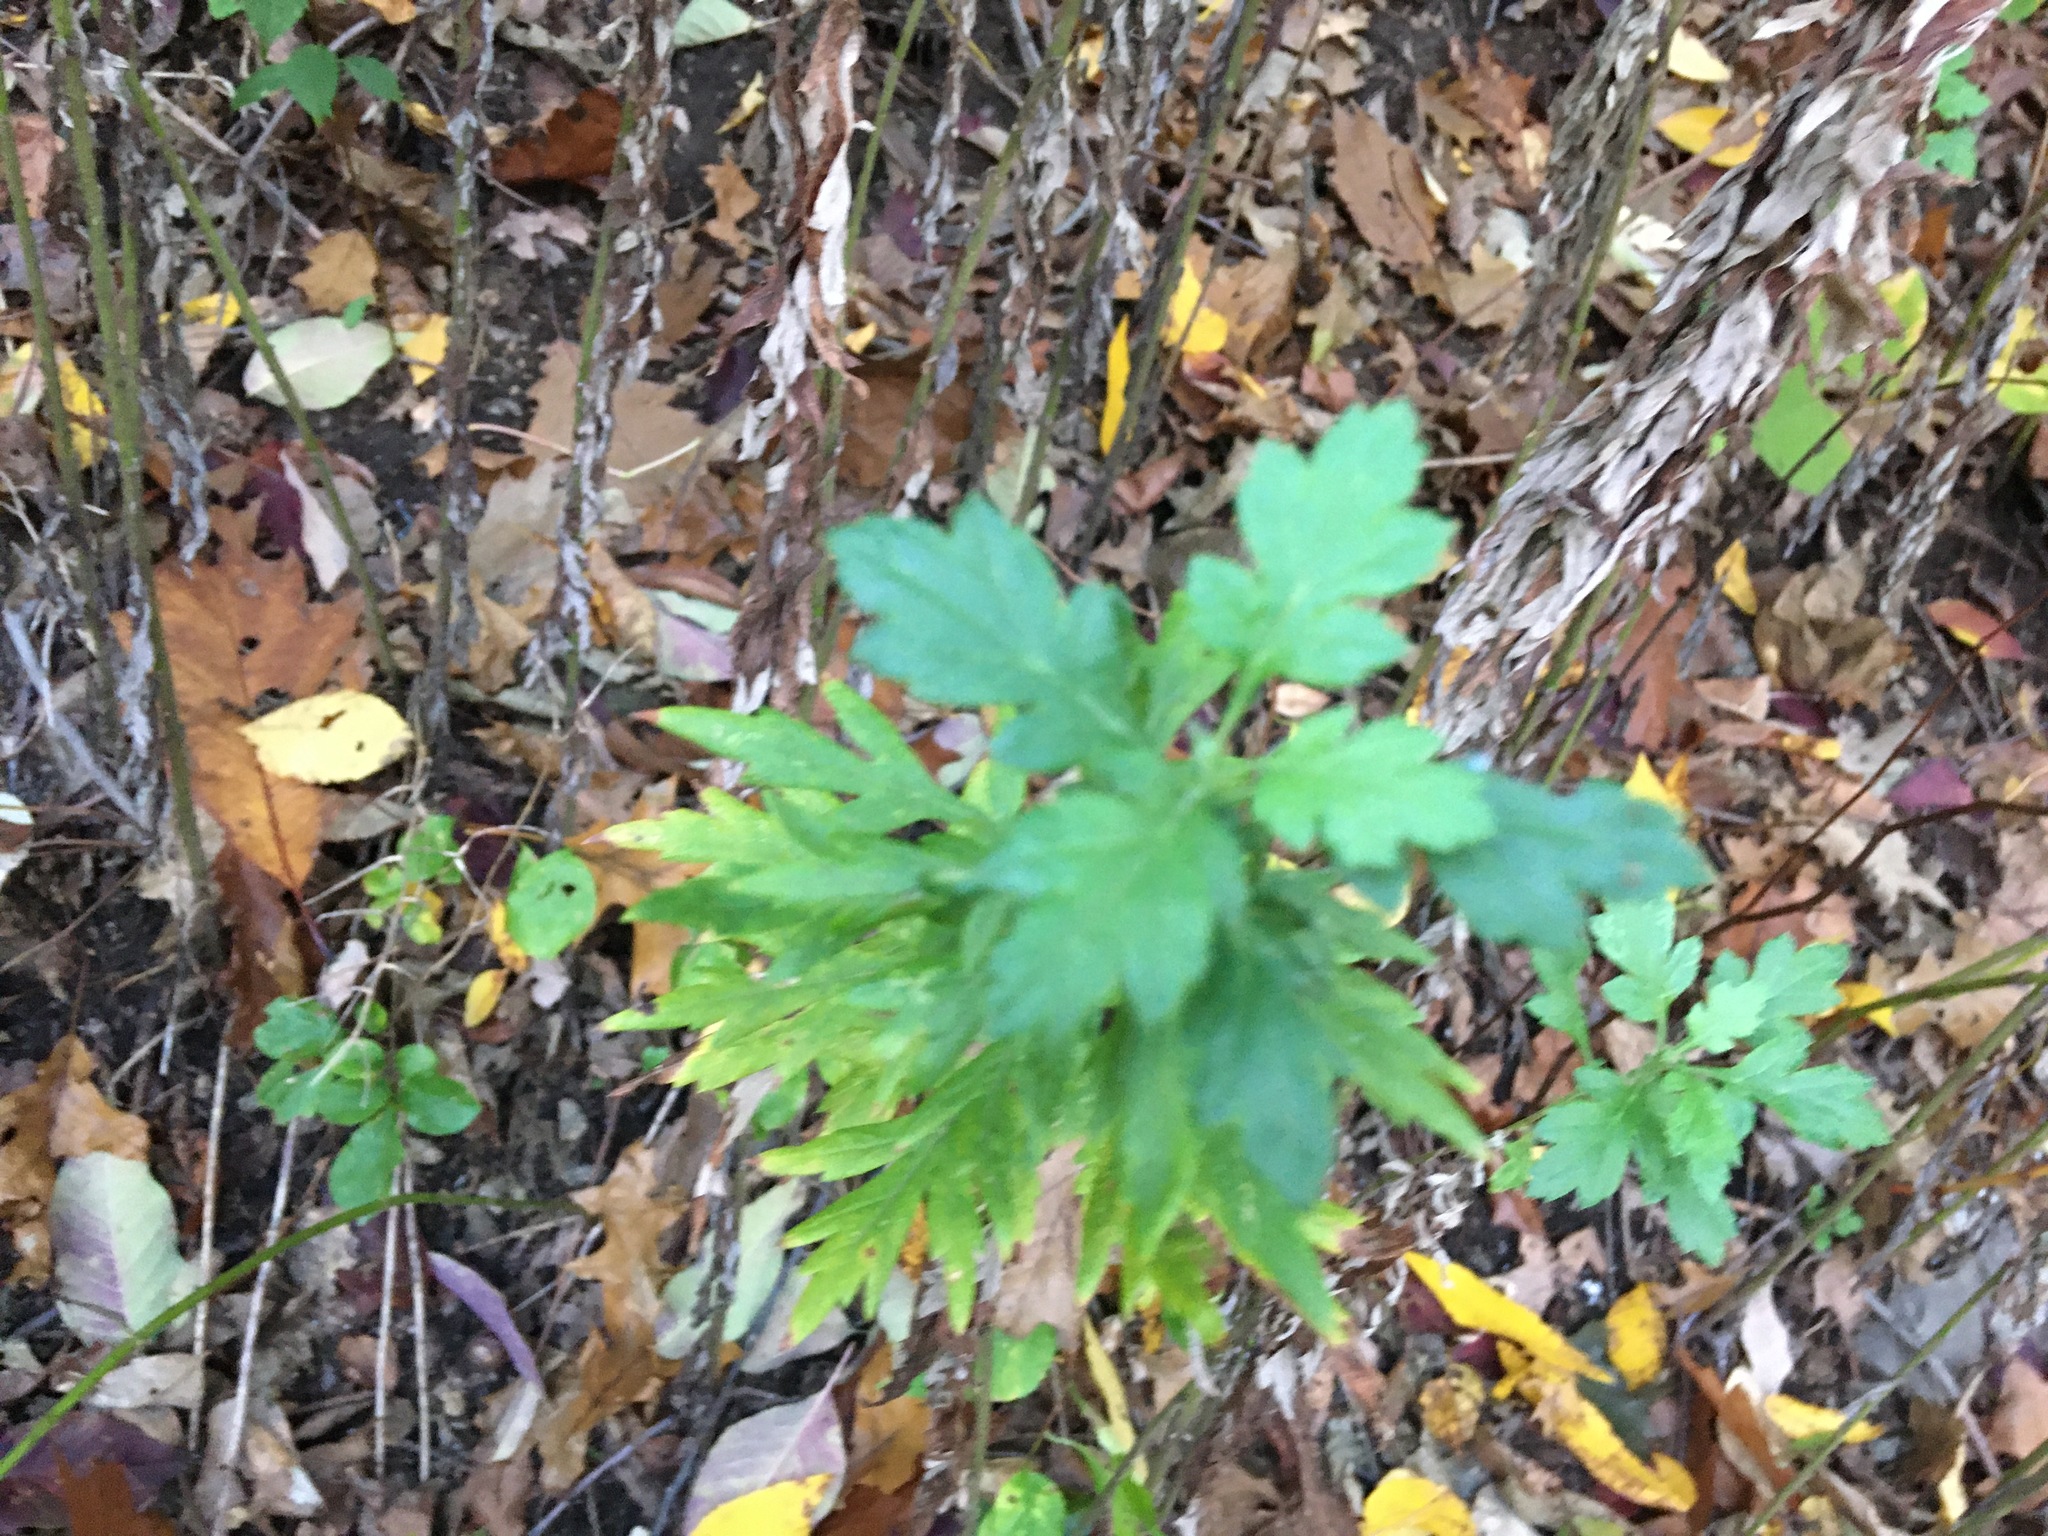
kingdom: Plantae
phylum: Tracheophyta
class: Magnoliopsida
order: Asterales
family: Asteraceae
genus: Artemisia
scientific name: Artemisia vulgaris
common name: Mugwort
